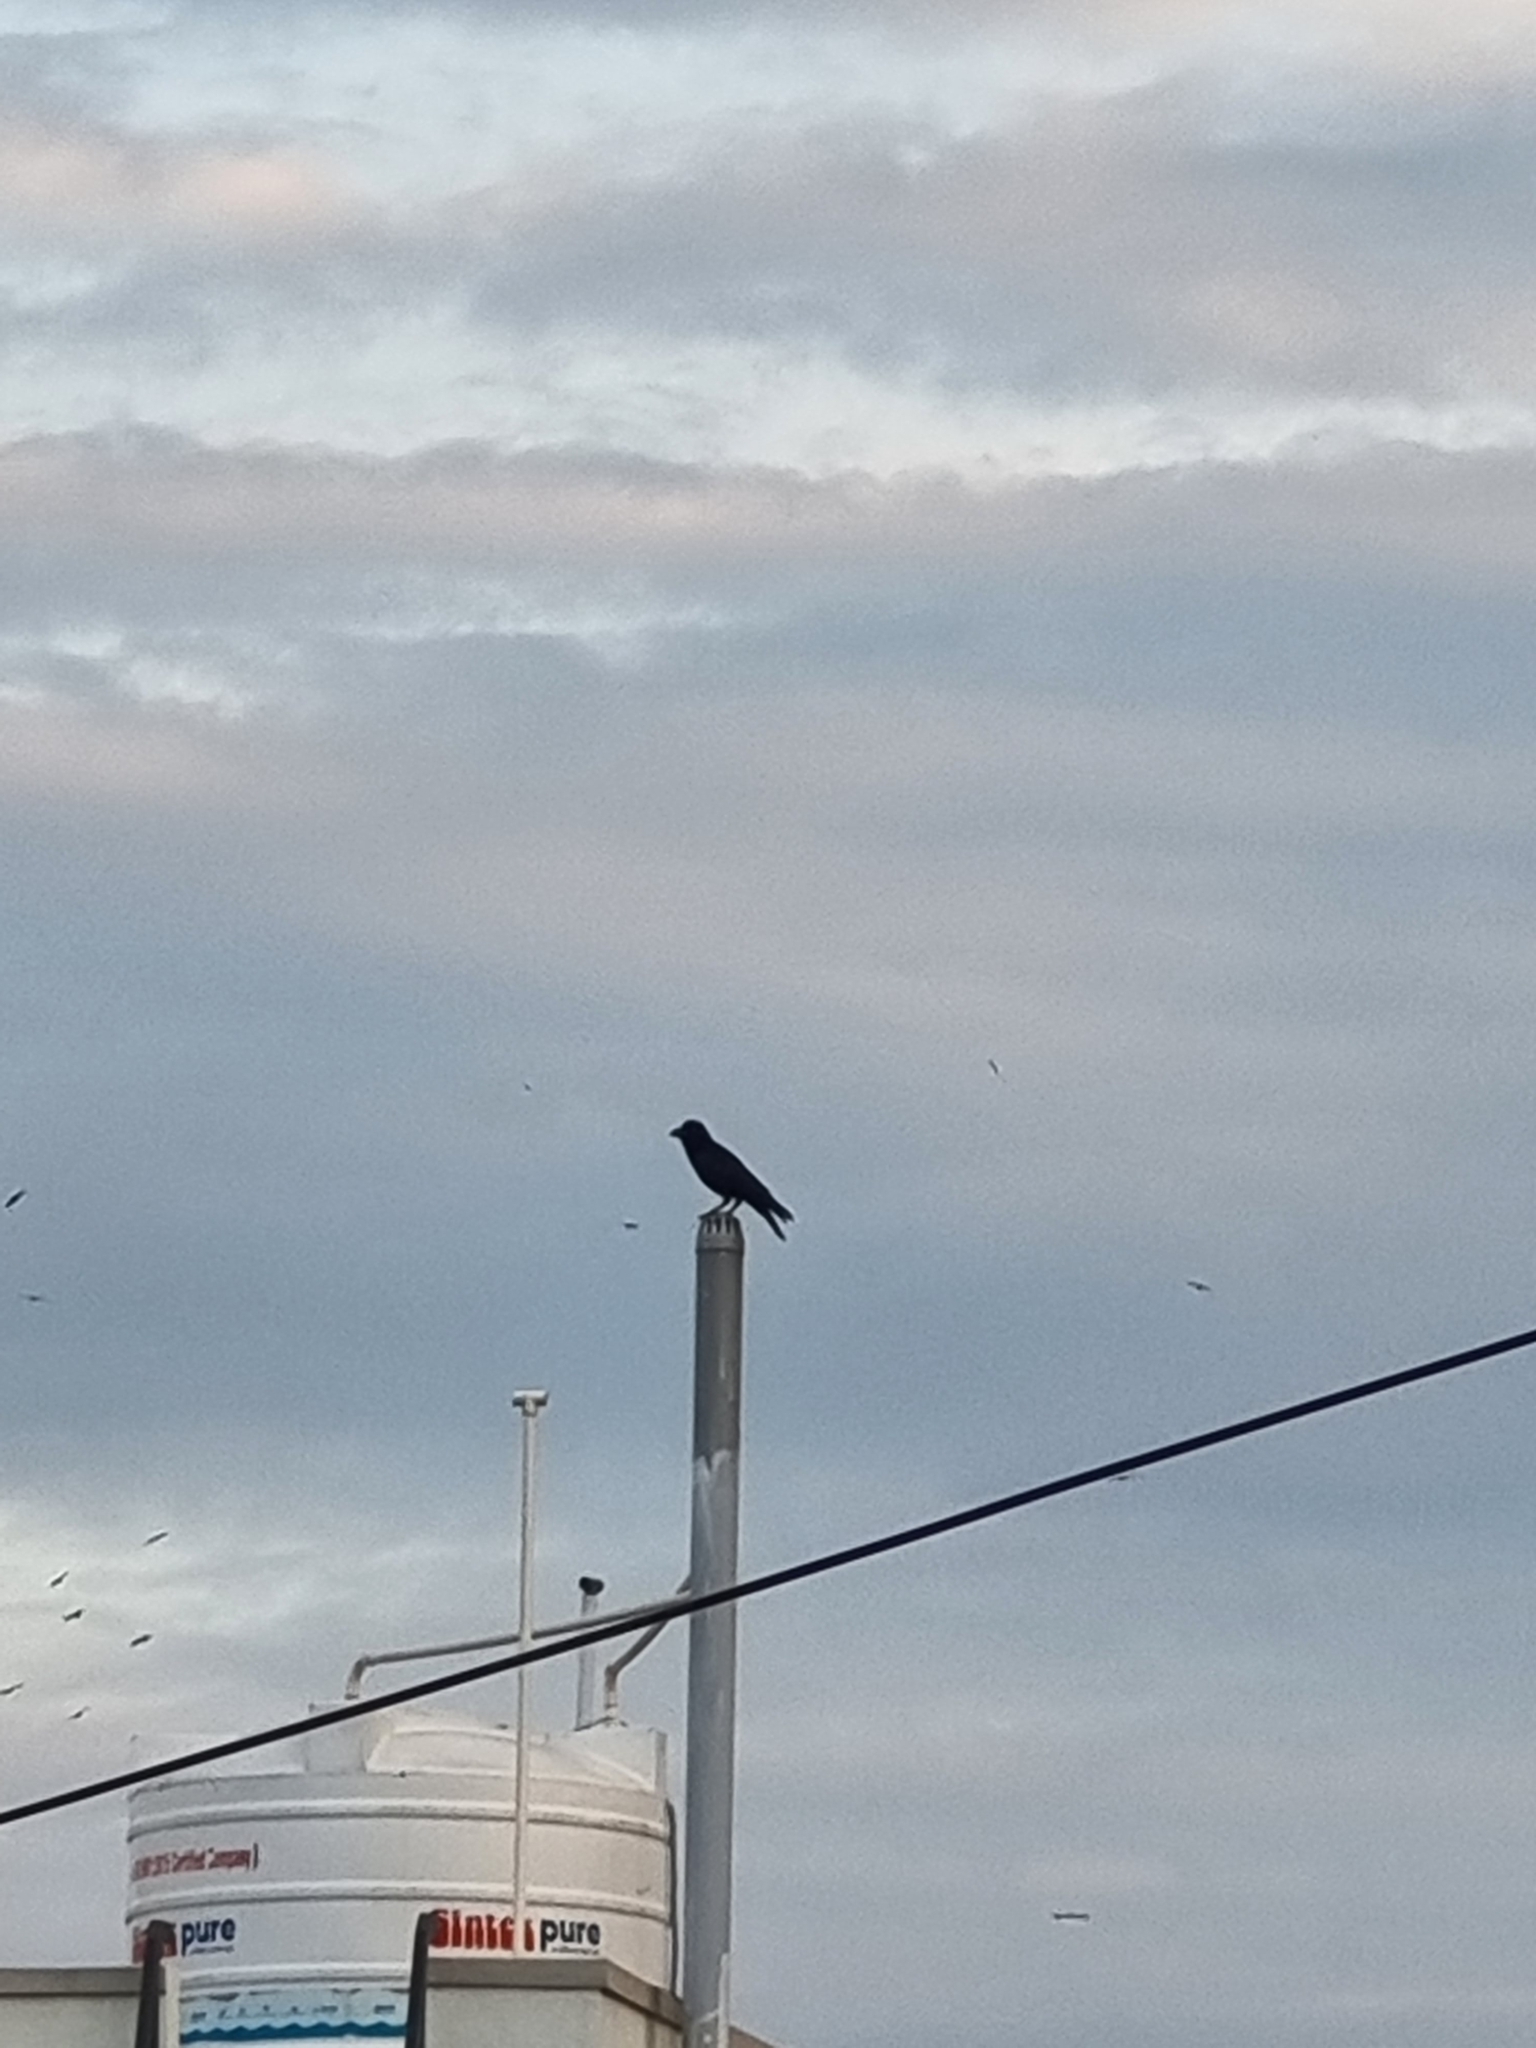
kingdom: Animalia
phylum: Chordata
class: Aves
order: Passeriformes
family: Corvidae
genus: Corvus
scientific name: Corvus macrorhynchos
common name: Large-billed crow
